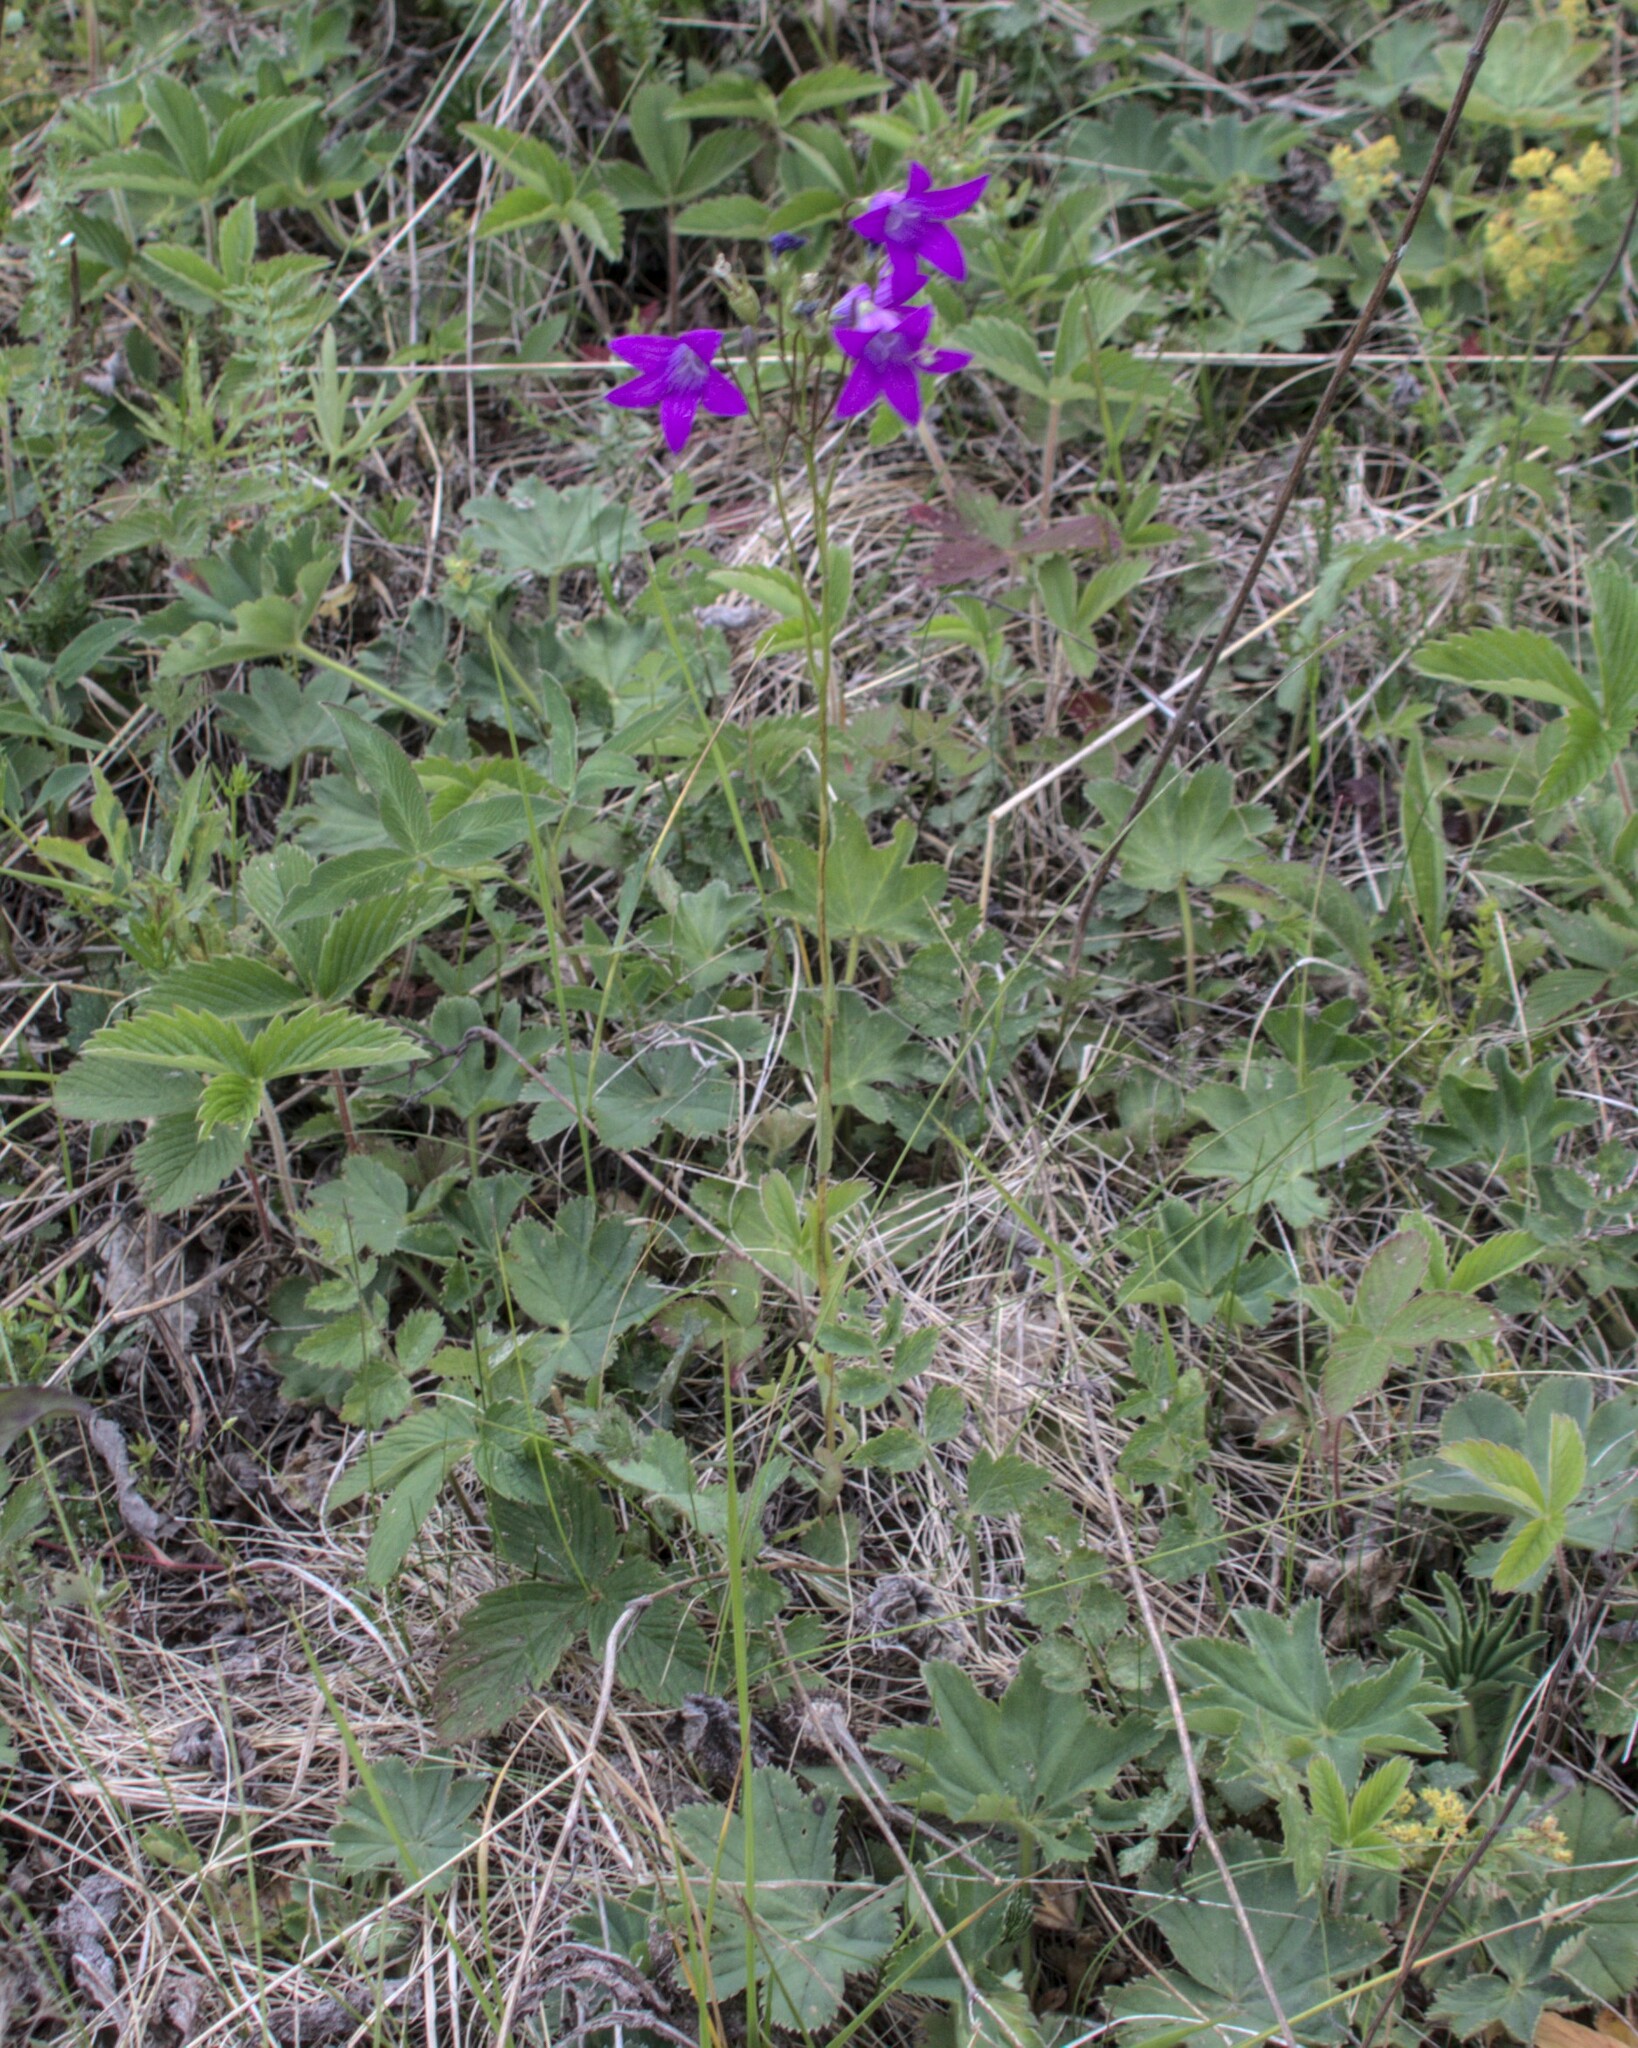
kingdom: Plantae
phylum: Tracheophyta
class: Magnoliopsida
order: Asterales
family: Campanulaceae
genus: Campanula
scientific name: Campanula patula
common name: Spreading bellflower
